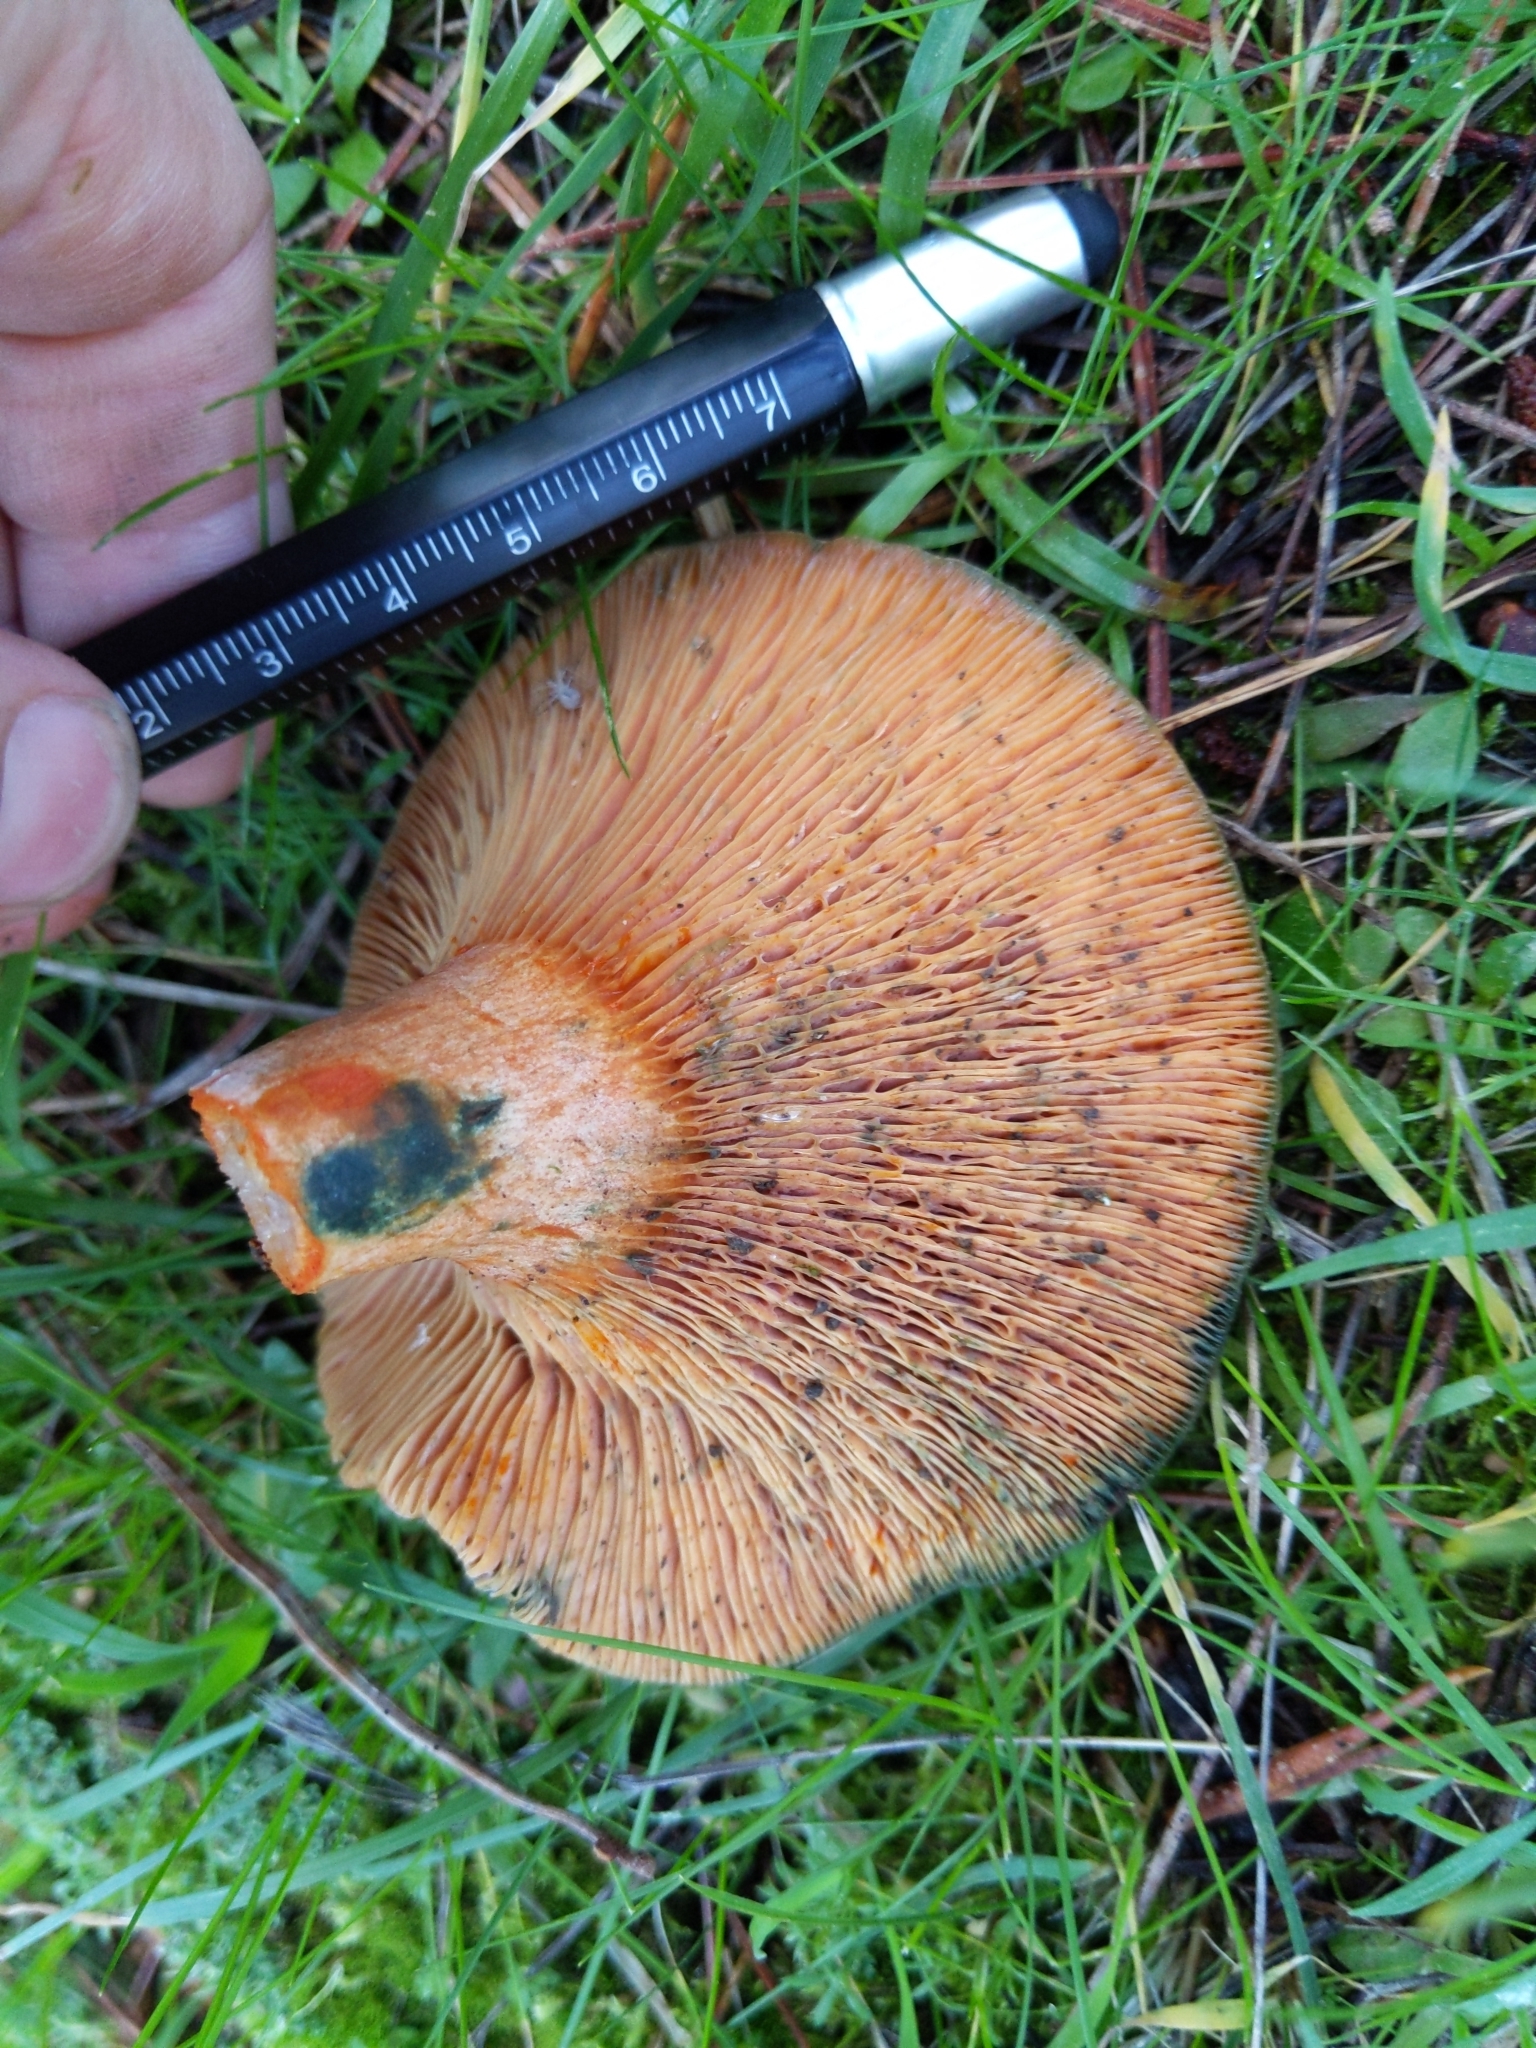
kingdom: Fungi
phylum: Basidiomycota
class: Agaricomycetes
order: Russulales
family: Russulaceae
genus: Lactarius
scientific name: Lactarius deliciosus
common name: Saffron milk-cap
